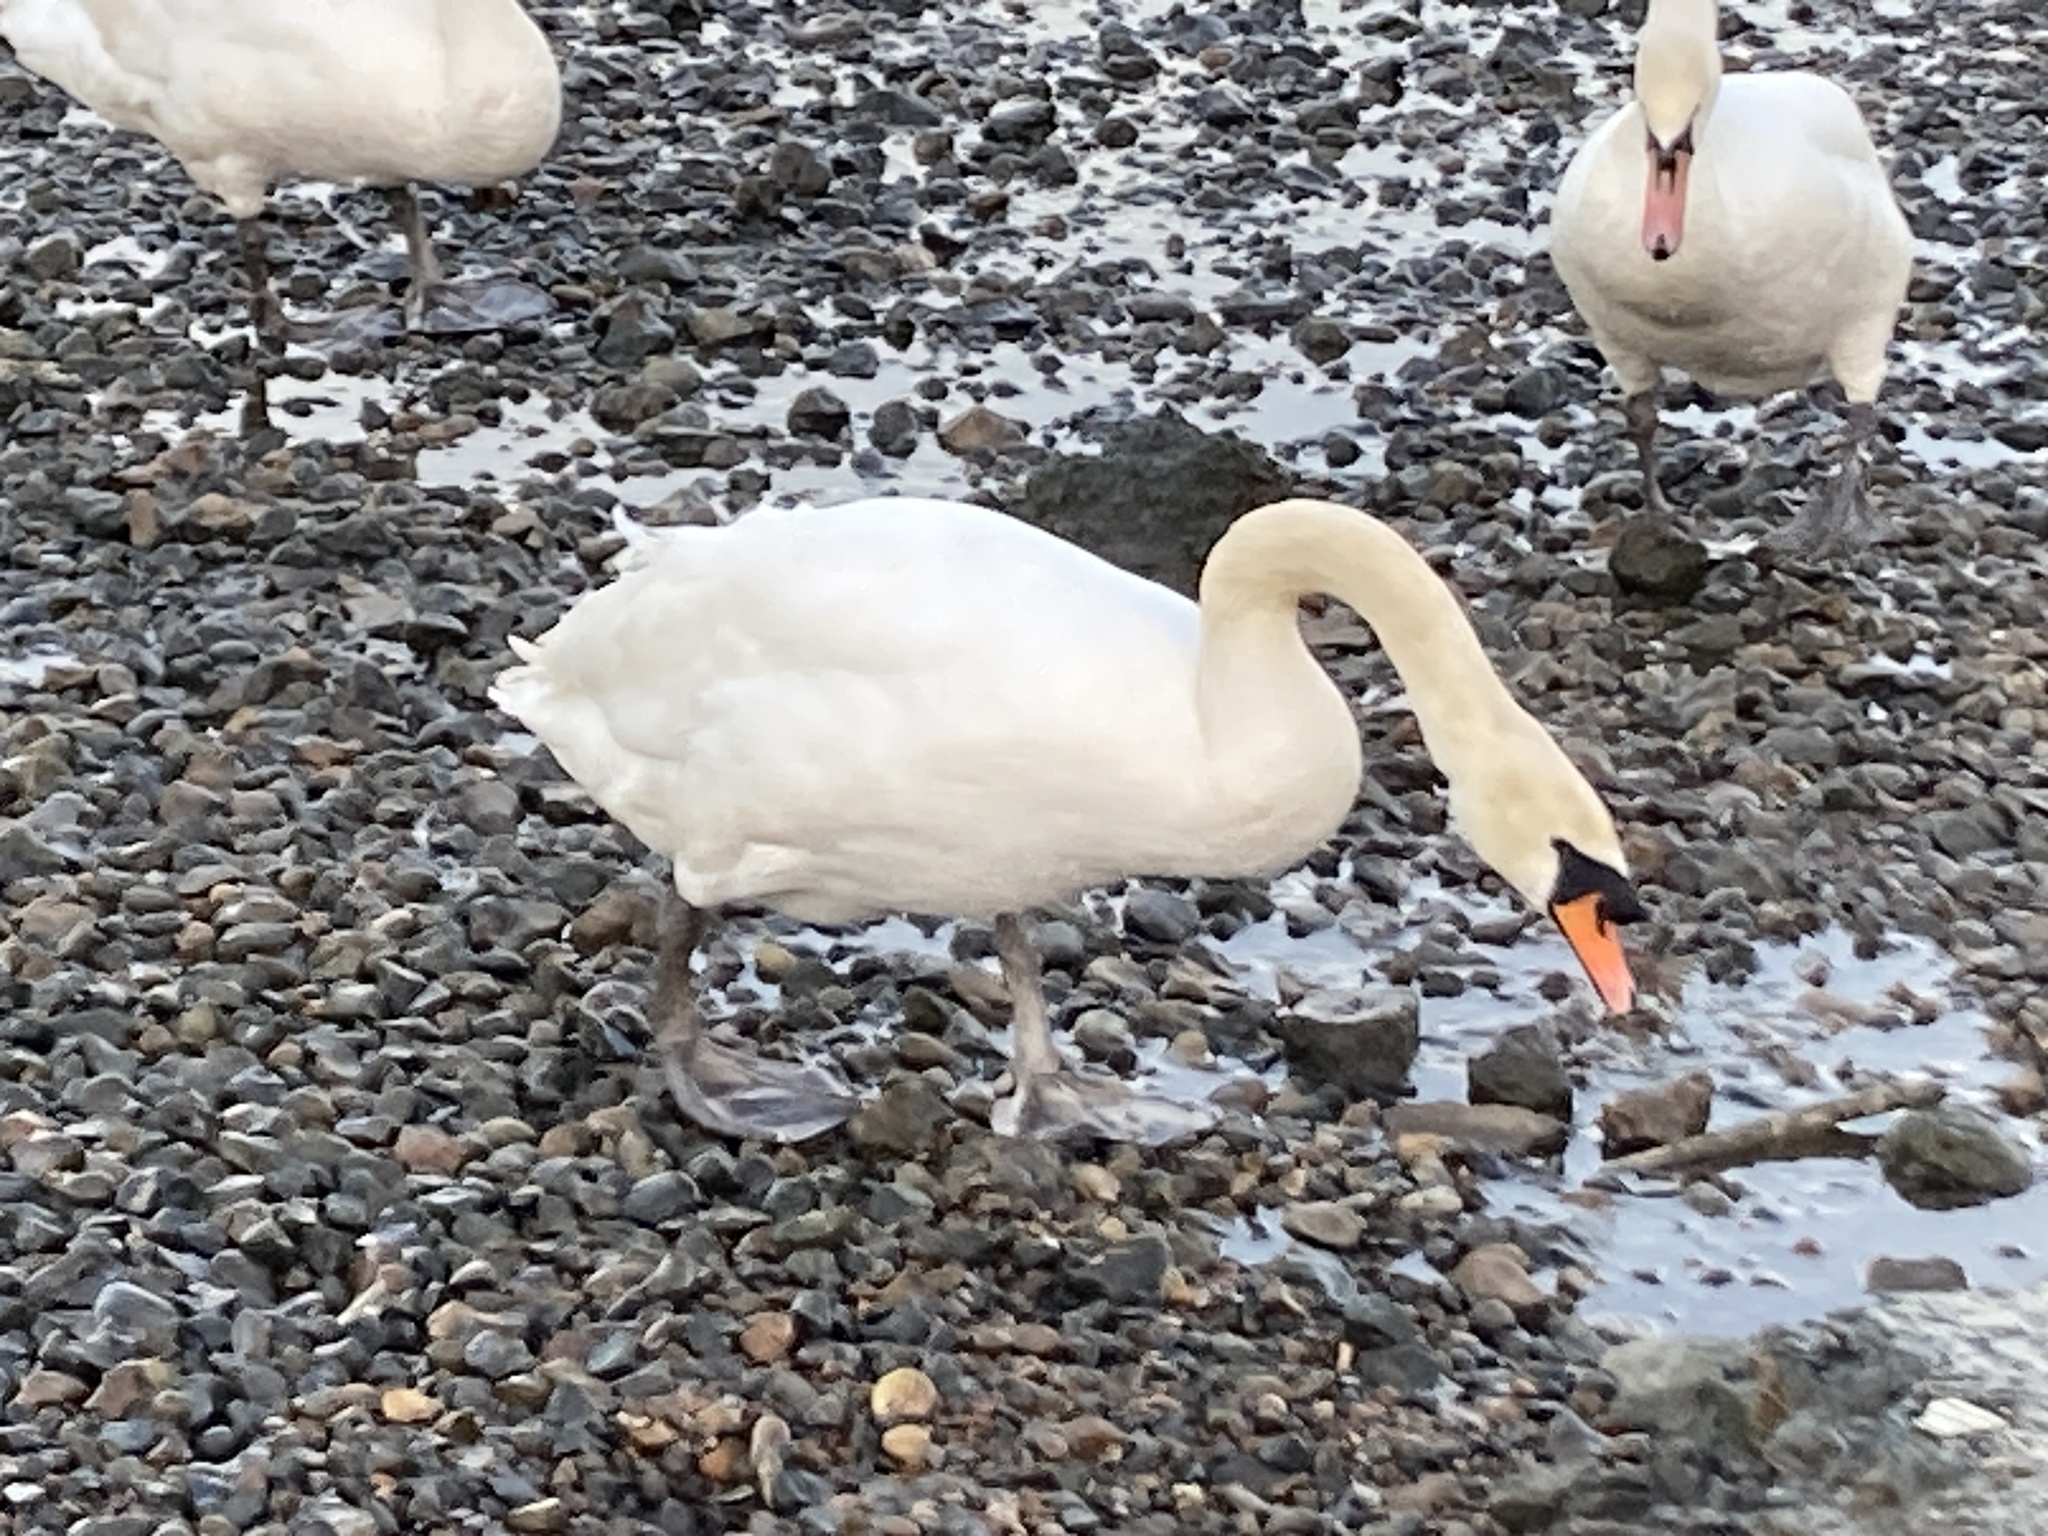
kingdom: Animalia
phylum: Chordata
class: Aves
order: Anseriformes
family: Anatidae
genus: Cygnus
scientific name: Cygnus olor
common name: Mute swan
